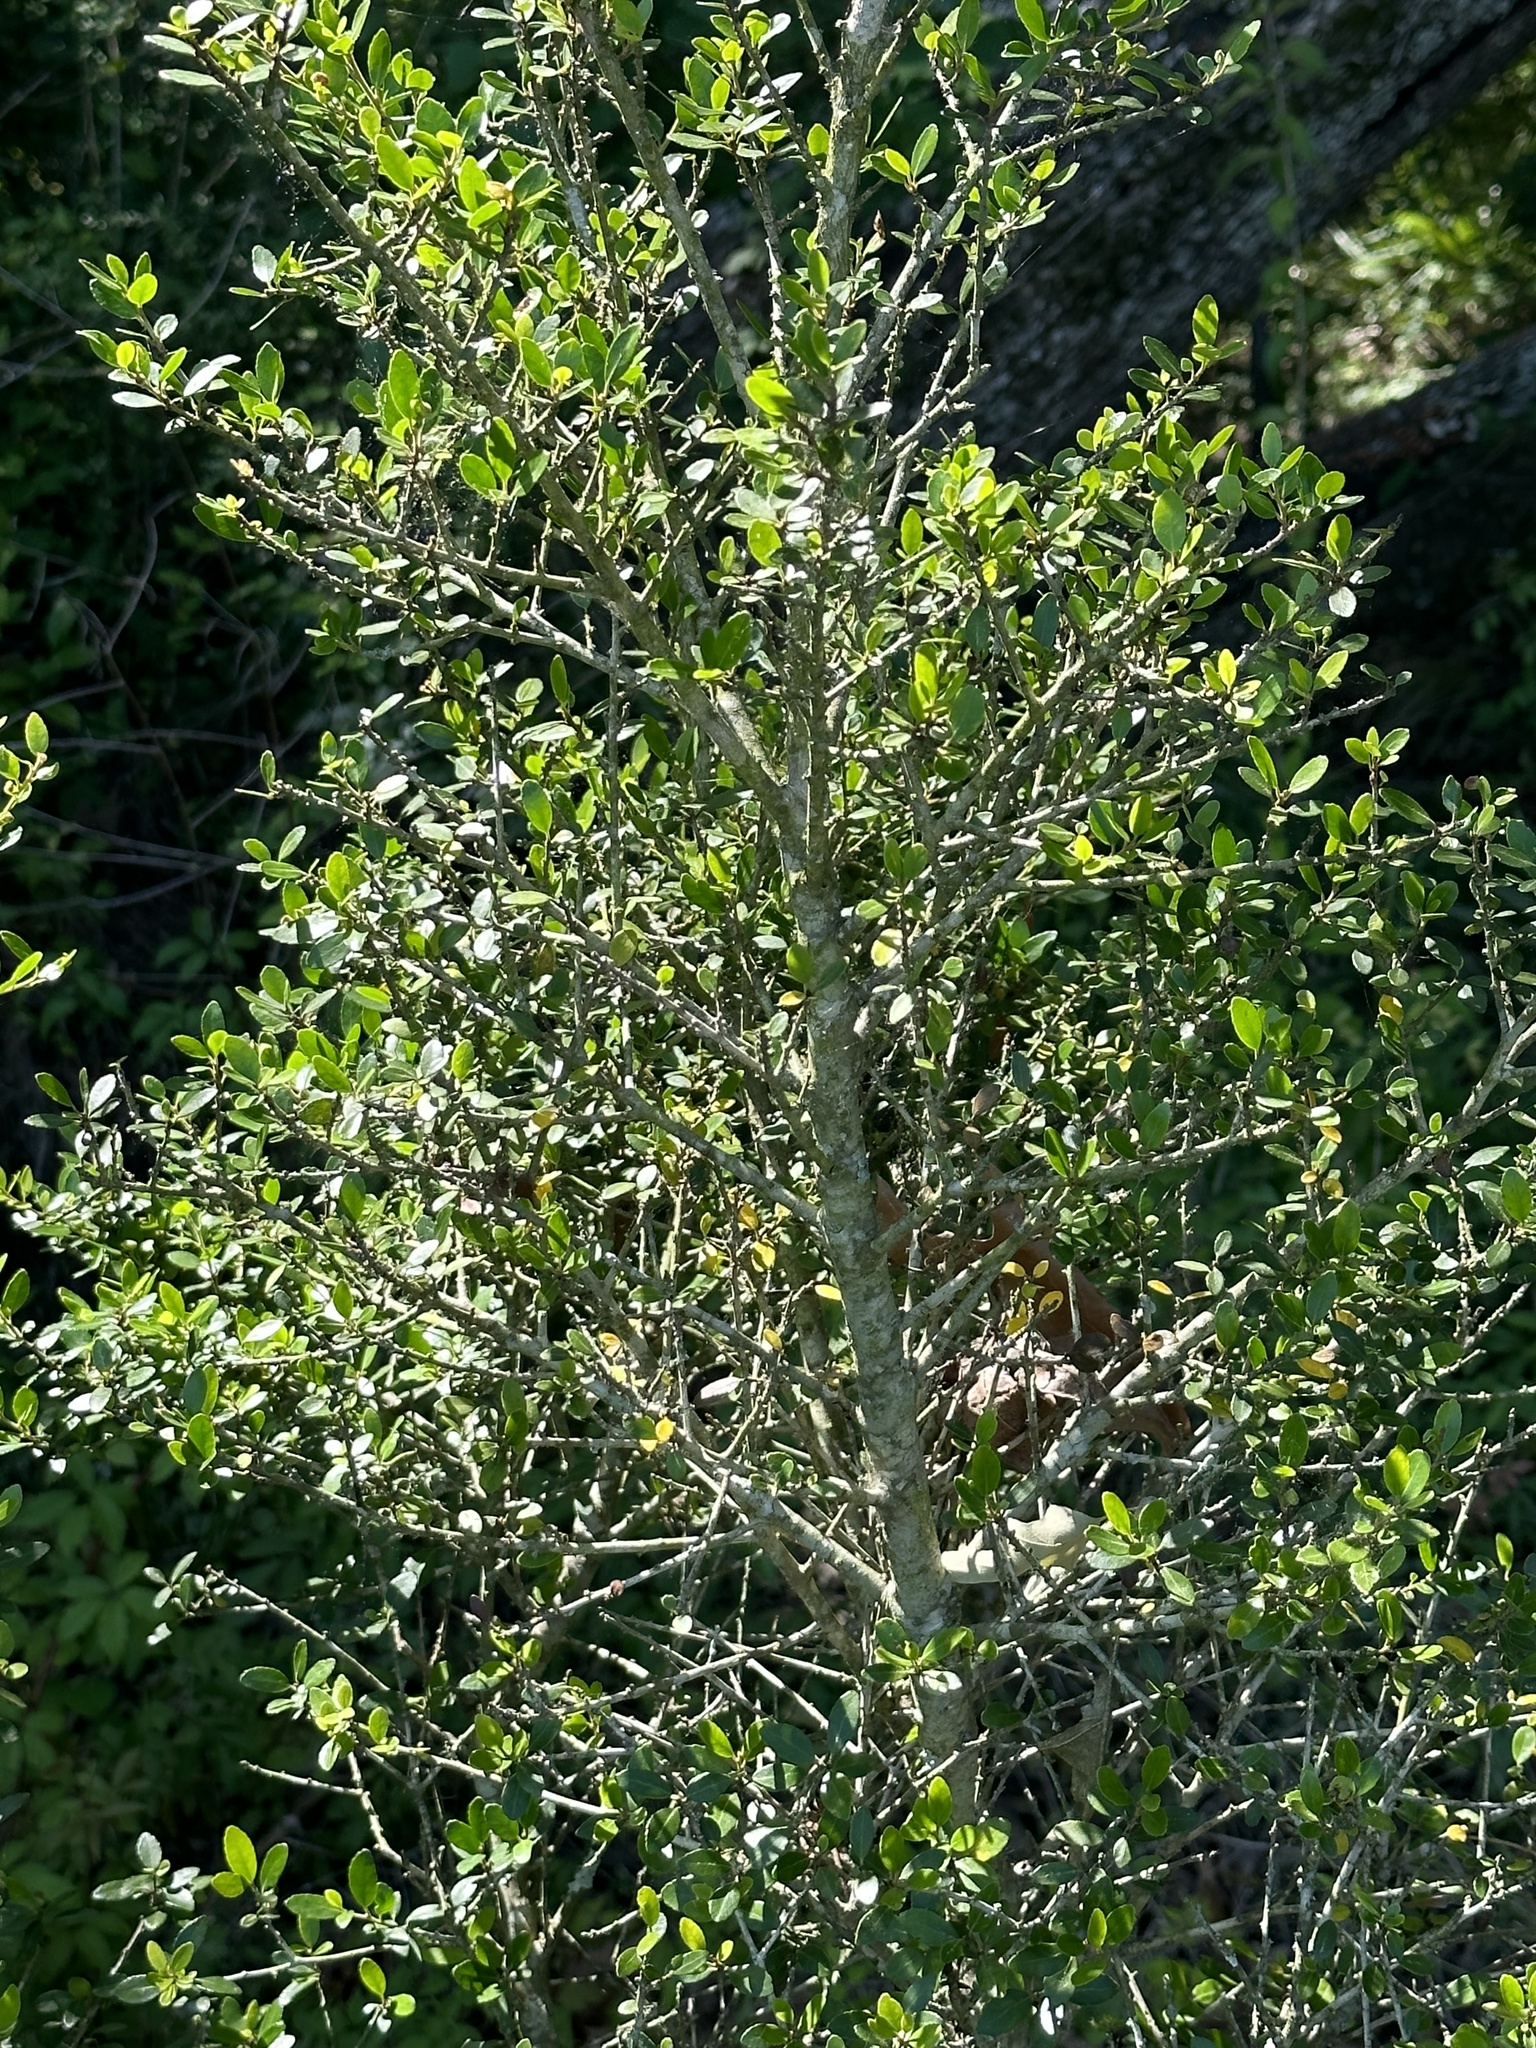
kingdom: Plantae
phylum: Tracheophyta
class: Magnoliopsida
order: Aquifoliales
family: Aquifoliaceae
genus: Ilex
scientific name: Ilex vomitoria
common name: Yaupon holly
